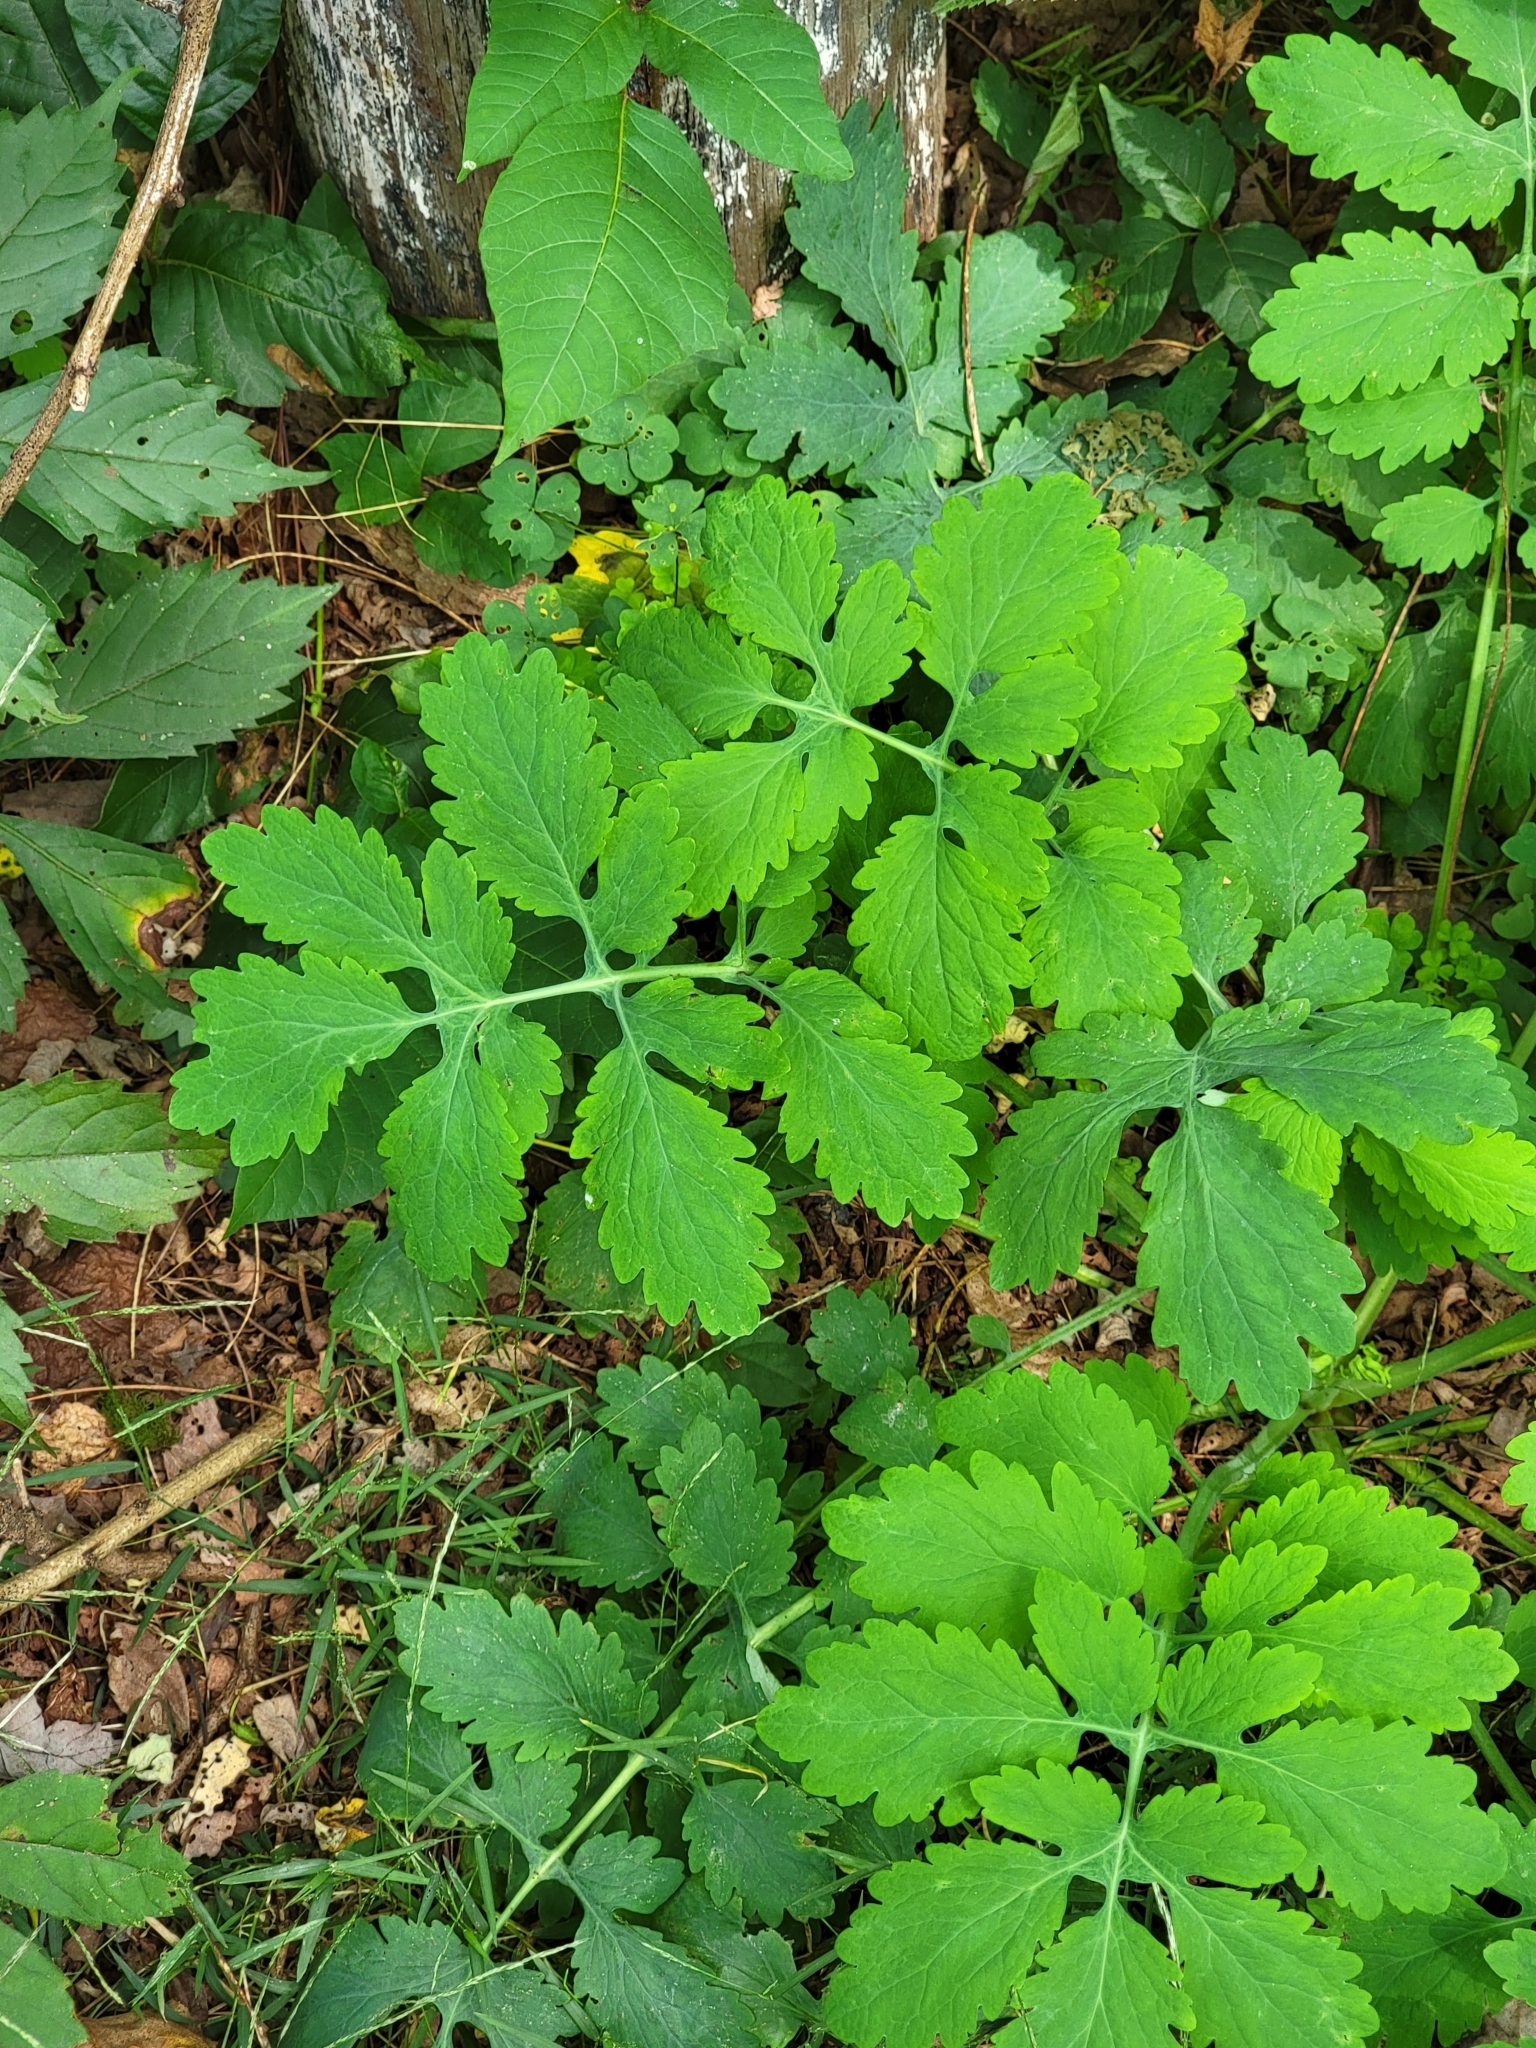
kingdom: Plantae
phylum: Tracheophyta
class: Magnoliopsida
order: Ranunculales
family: Papaveraceae
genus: Chelidonium
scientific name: Chelidonium majus
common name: Greater celandine
